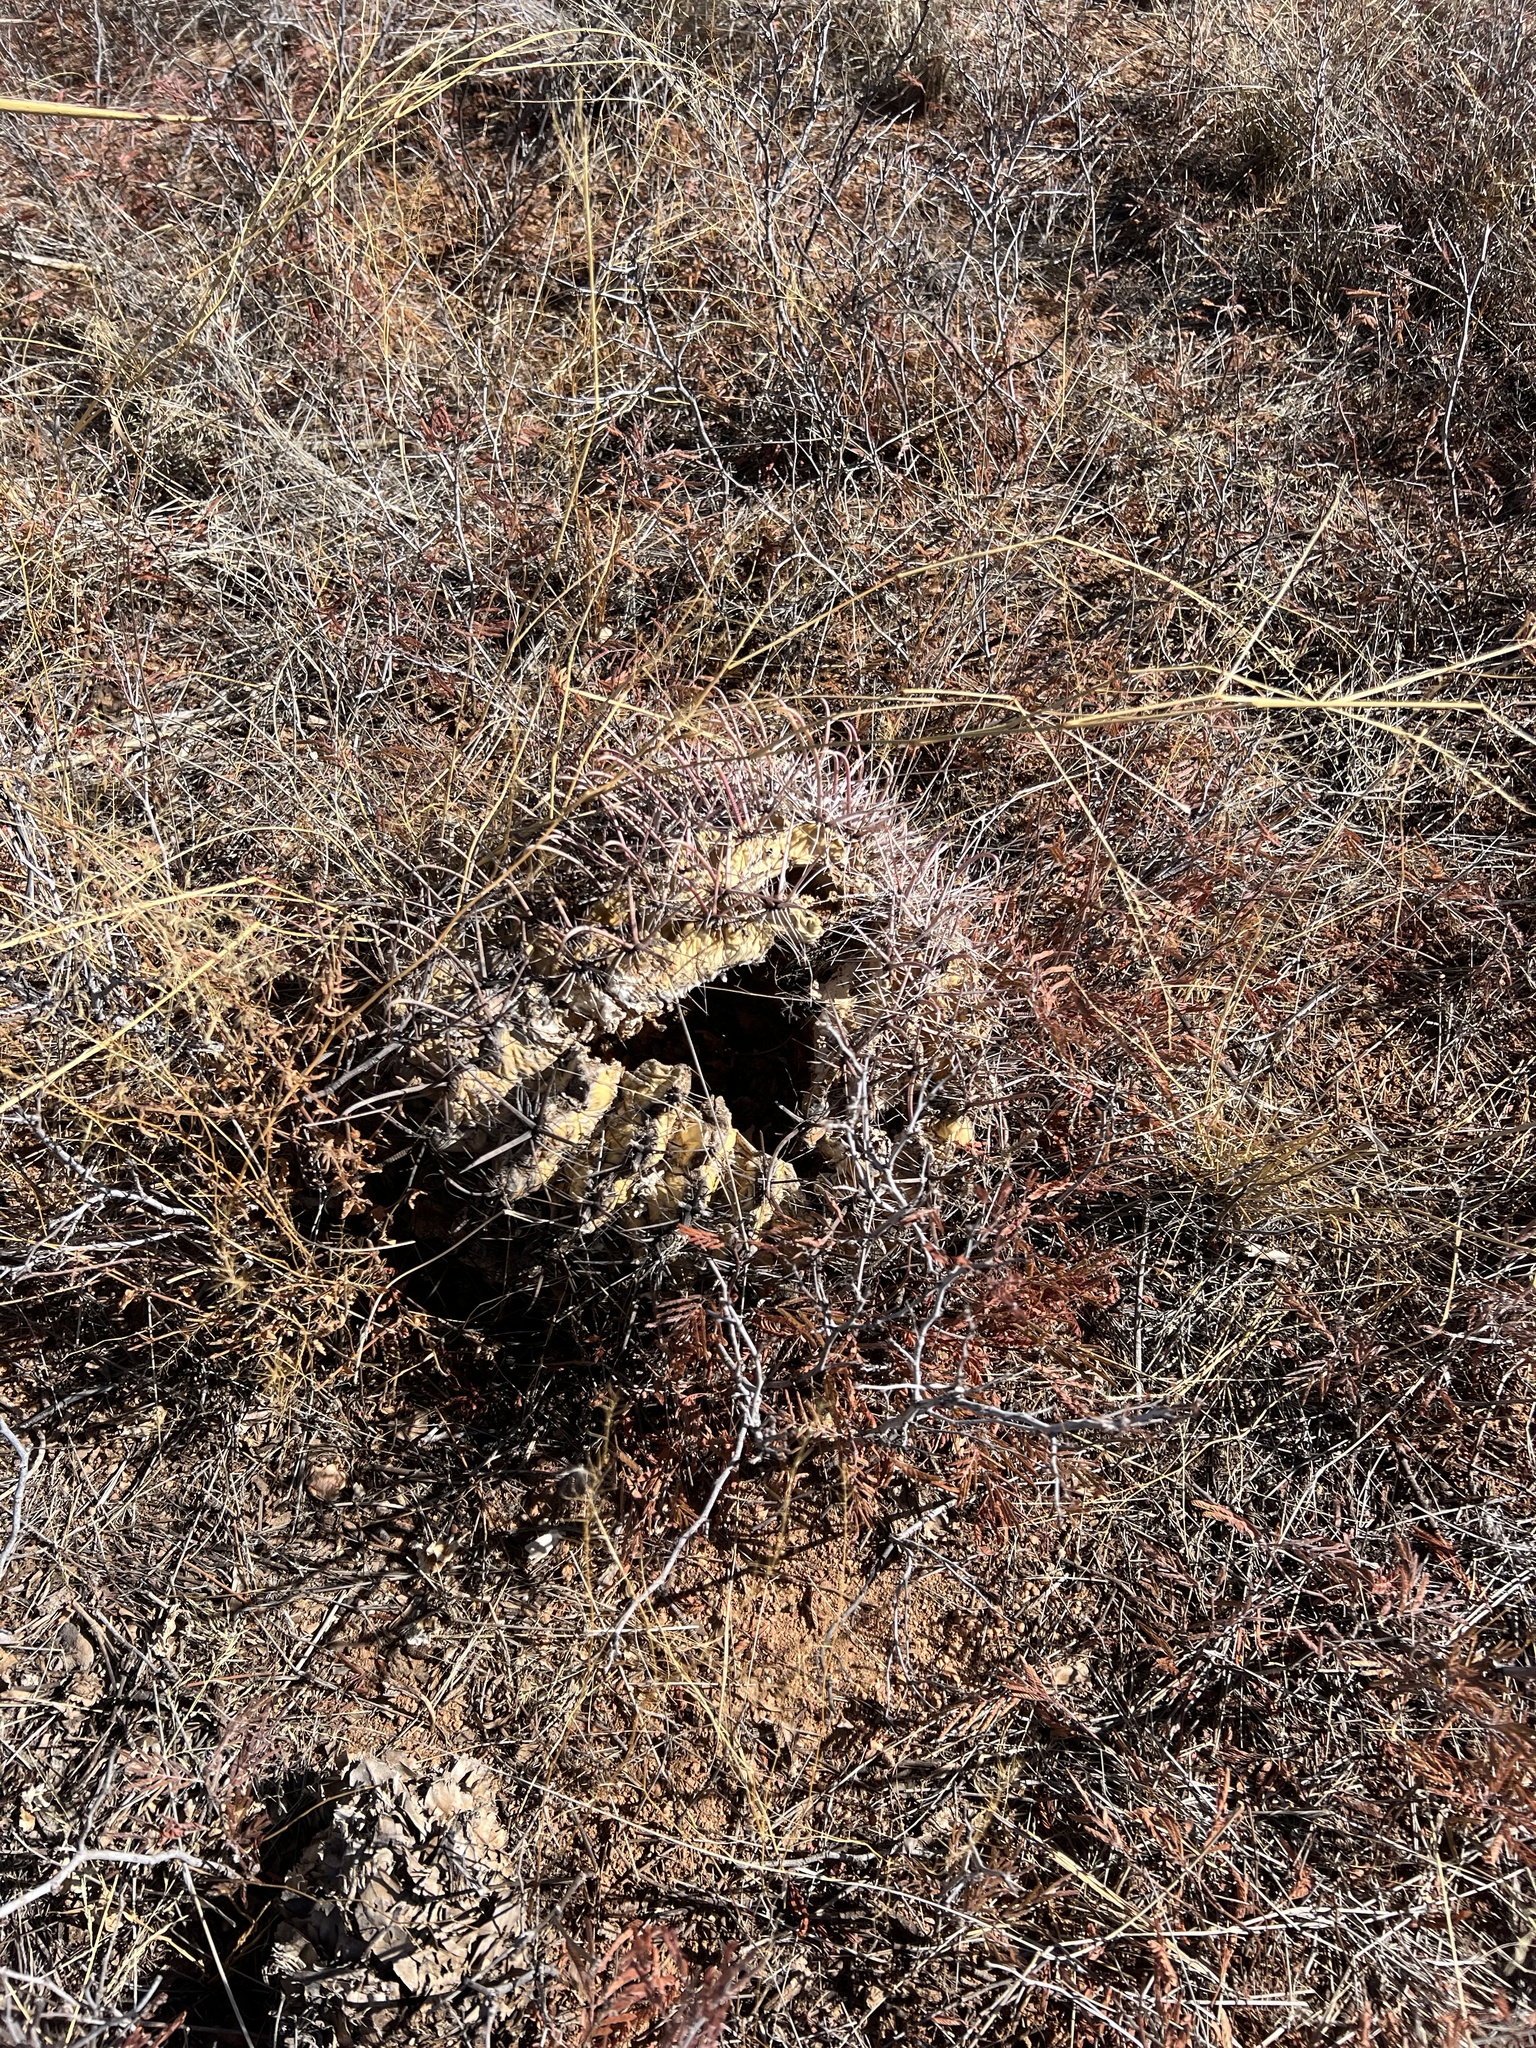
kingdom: Plantae
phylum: Tracheophyta
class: Magnoliopsida
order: Caryophyllales
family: Cactaceae
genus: Ferocactus
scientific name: Ferocactus wislizeni
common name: Candy barrel cactus
